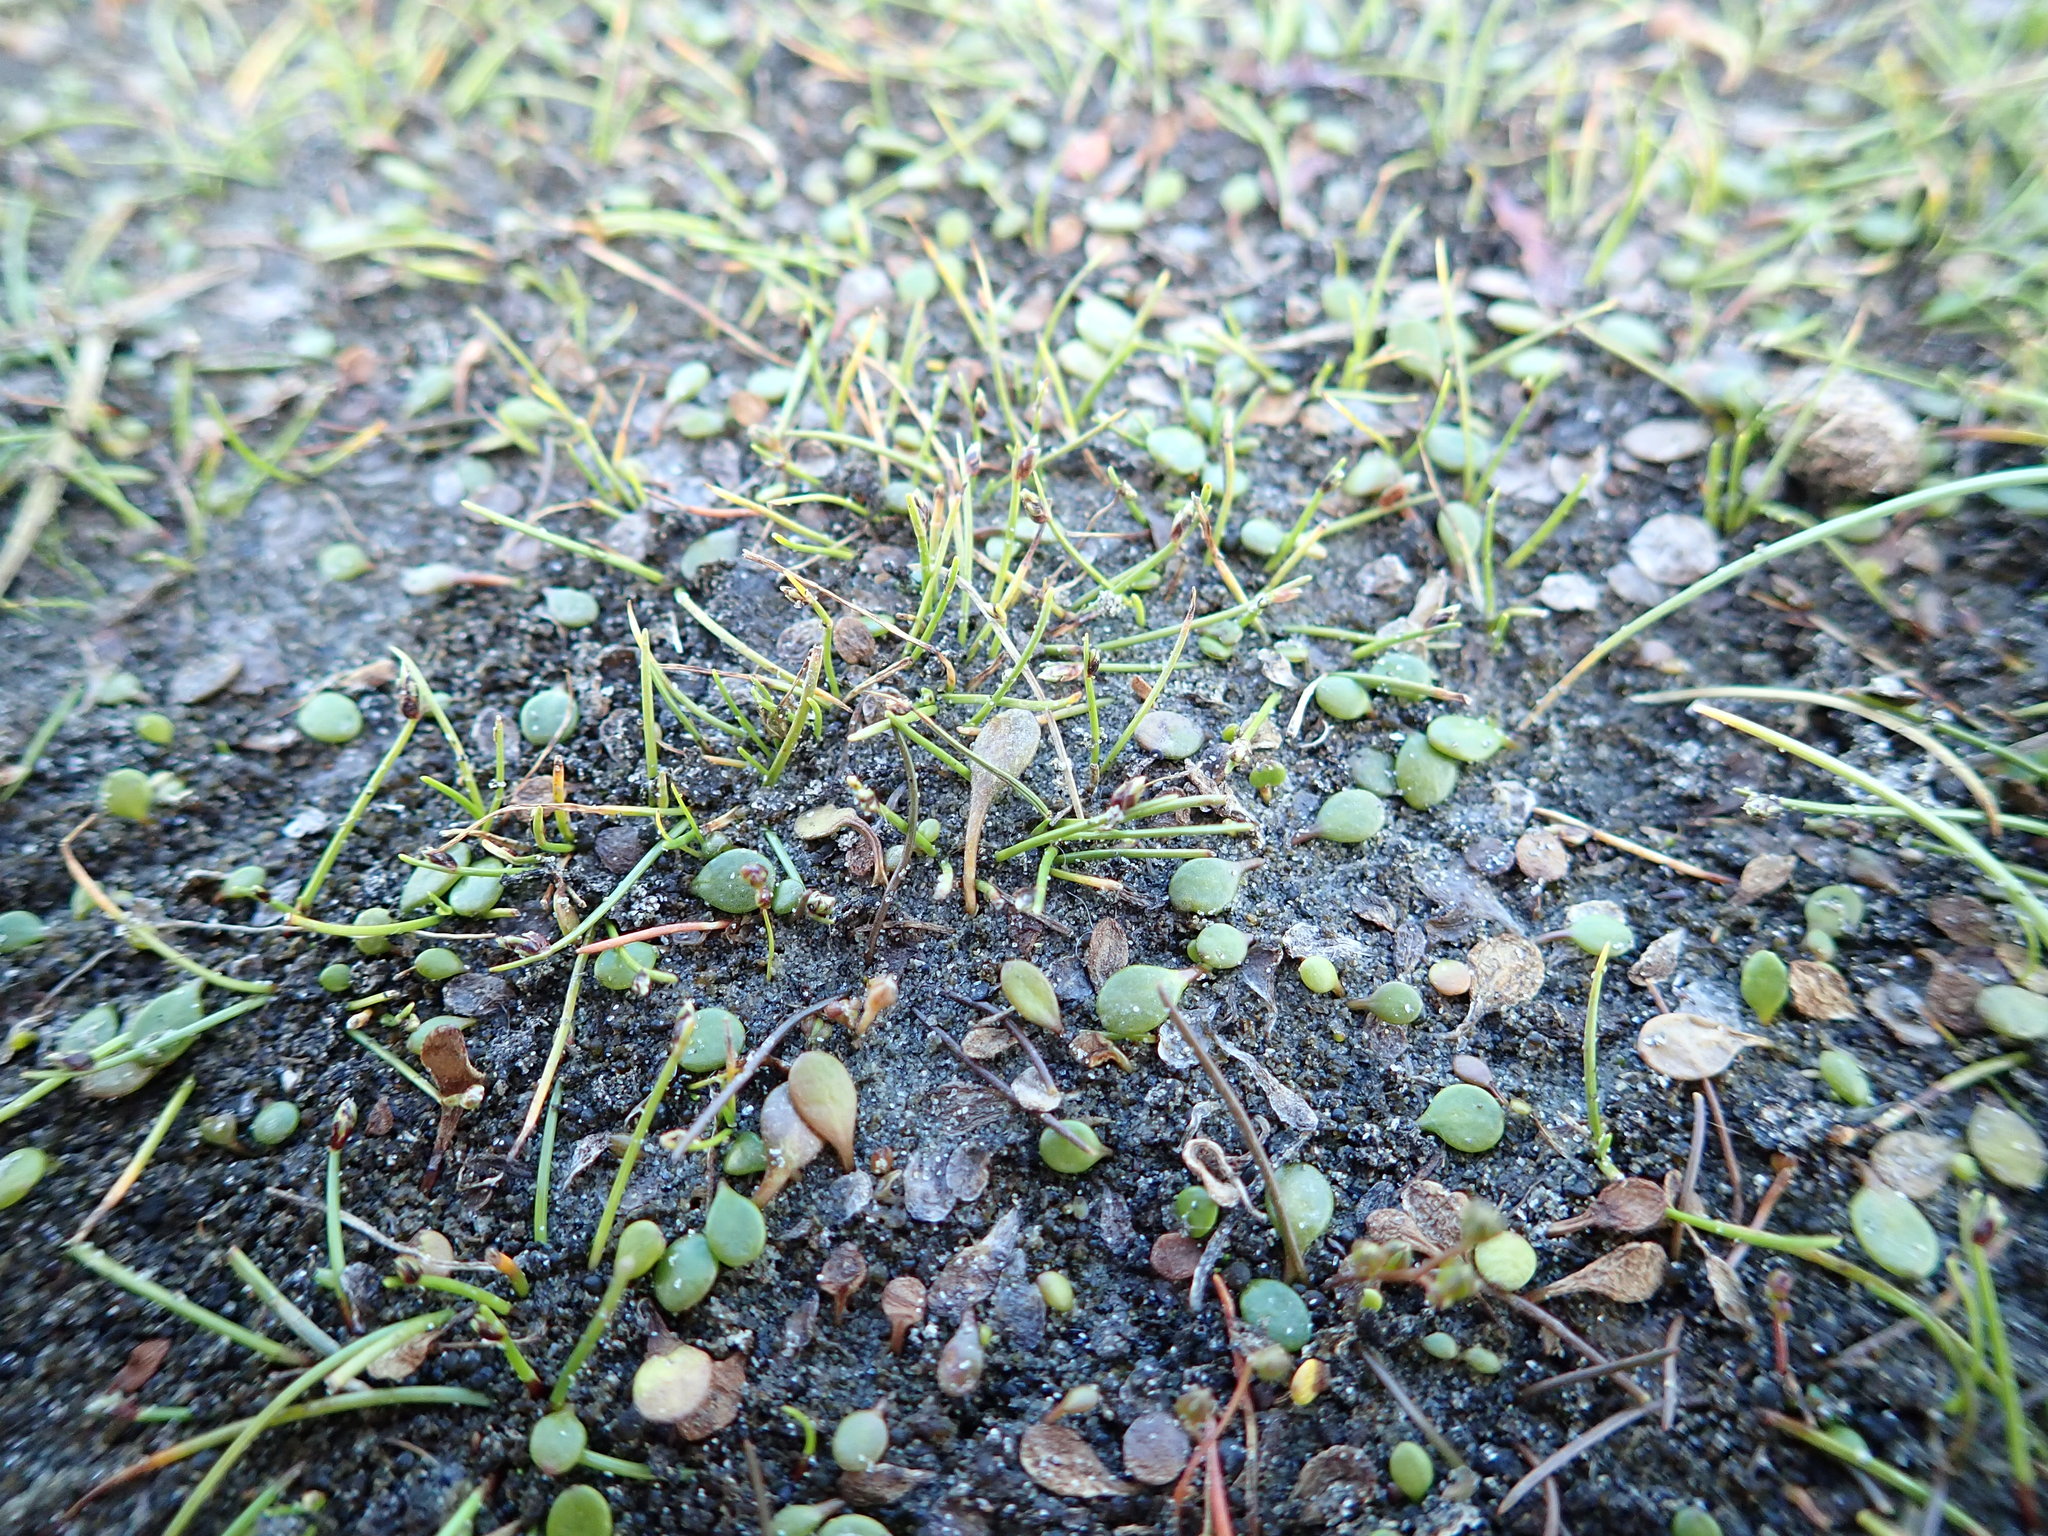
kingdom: Plantae
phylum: Tracheophyta
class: Liliopsida
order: Poales
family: Cyperaceae
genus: Isolepis
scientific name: Isolepis cernua
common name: Slender club-rush
